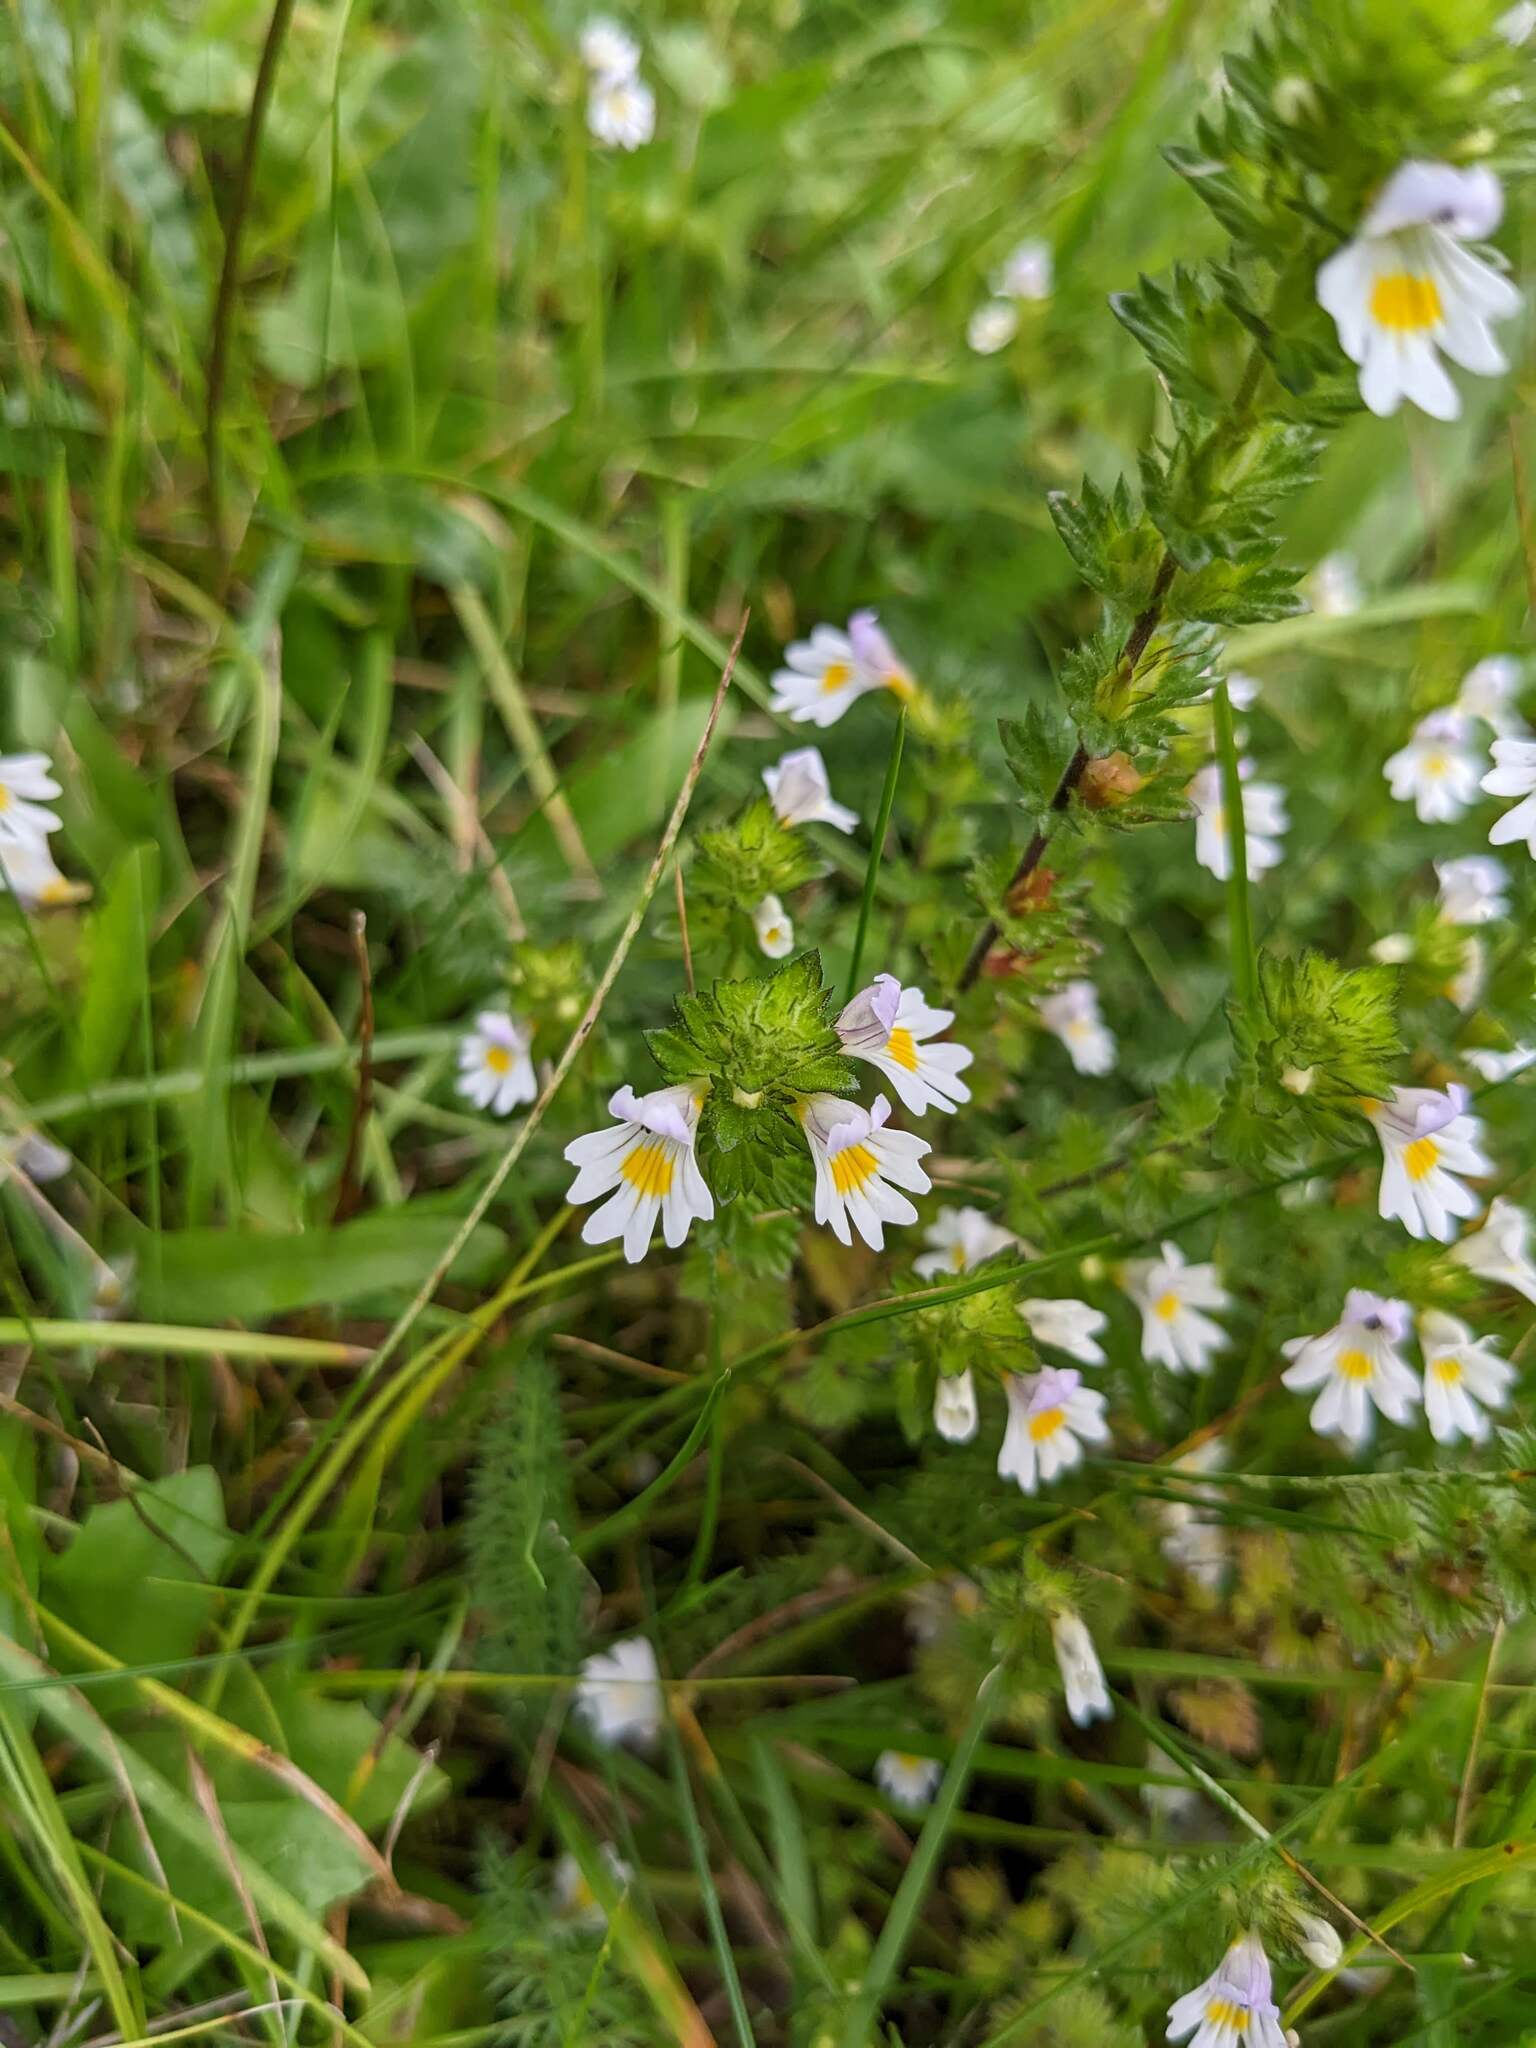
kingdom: Plantae
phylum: Tracheophyta
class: Magnoliopsida
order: Lamiales
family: Orobanchaceae
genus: Euphrasia
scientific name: Euphrasia officinalis
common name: Eyebright
